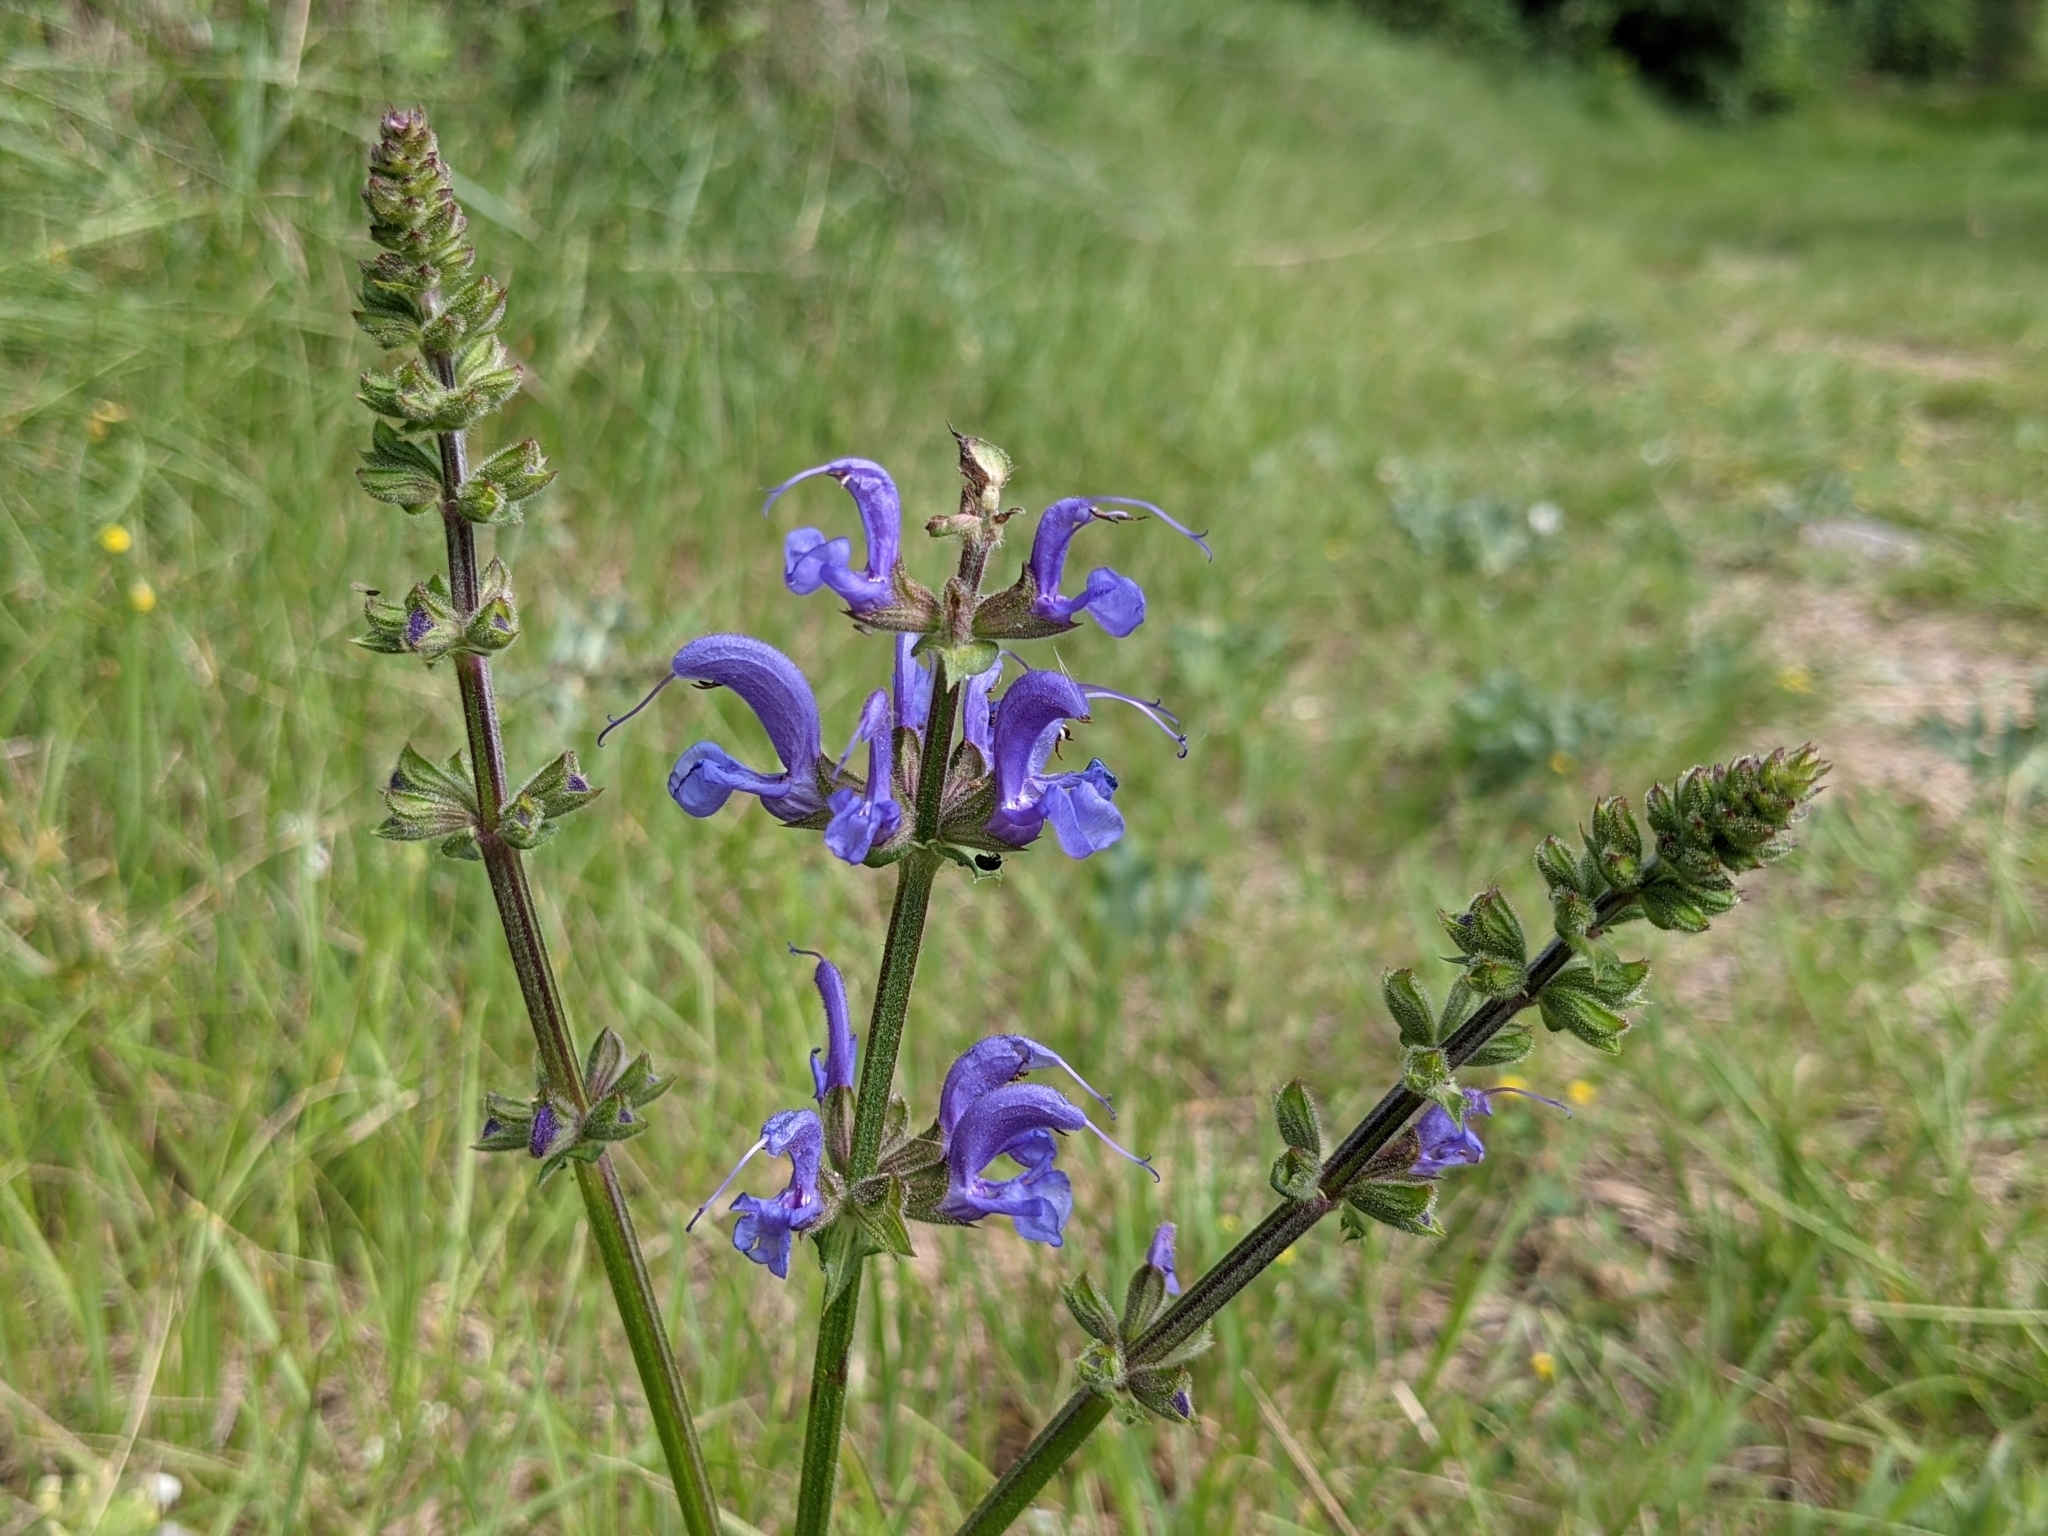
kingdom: Plantae
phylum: Tracheophyta
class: Magnoliopsida
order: Lamiales
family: Lamiaceae
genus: Salvia
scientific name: Salvia pratensis
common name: Meadow sage
